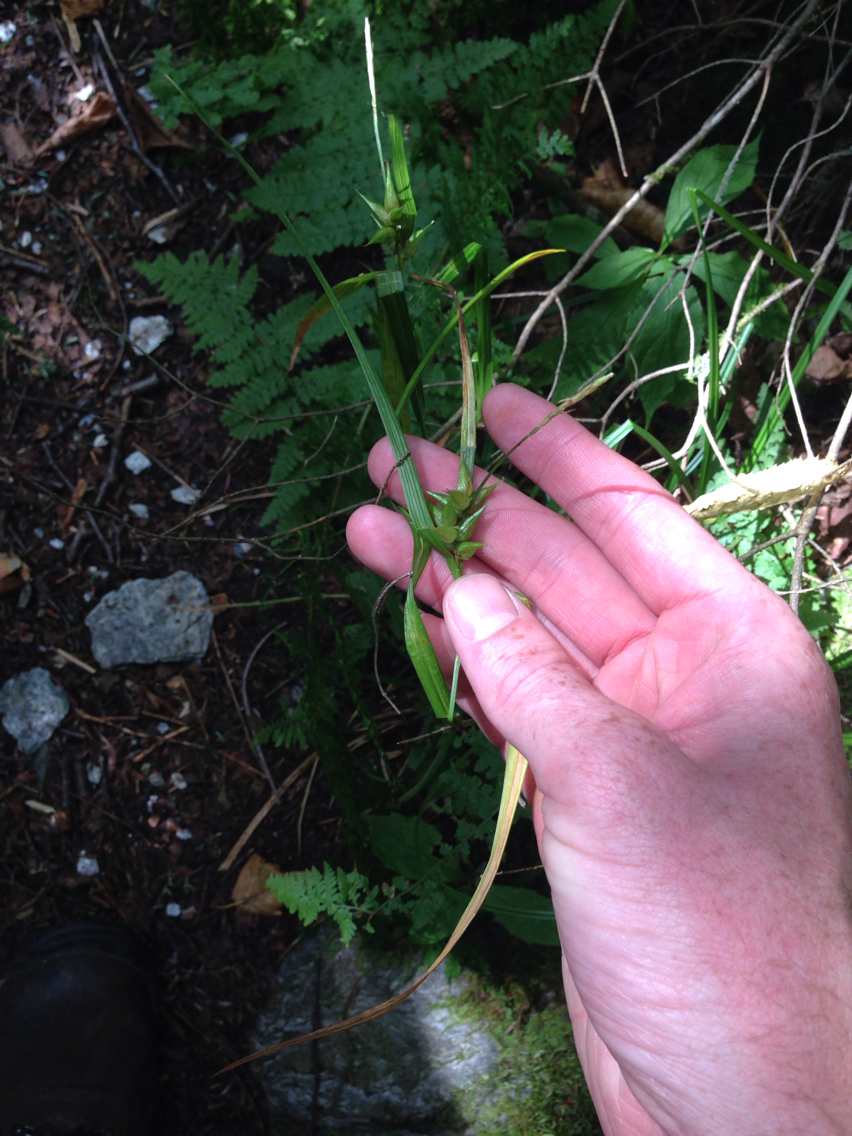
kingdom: Plantae
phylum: Tracheophyta
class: Liliopsida
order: Poales
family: Cyperaceae
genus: Carex
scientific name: Carex intumescens
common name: Greater bladder sedge
